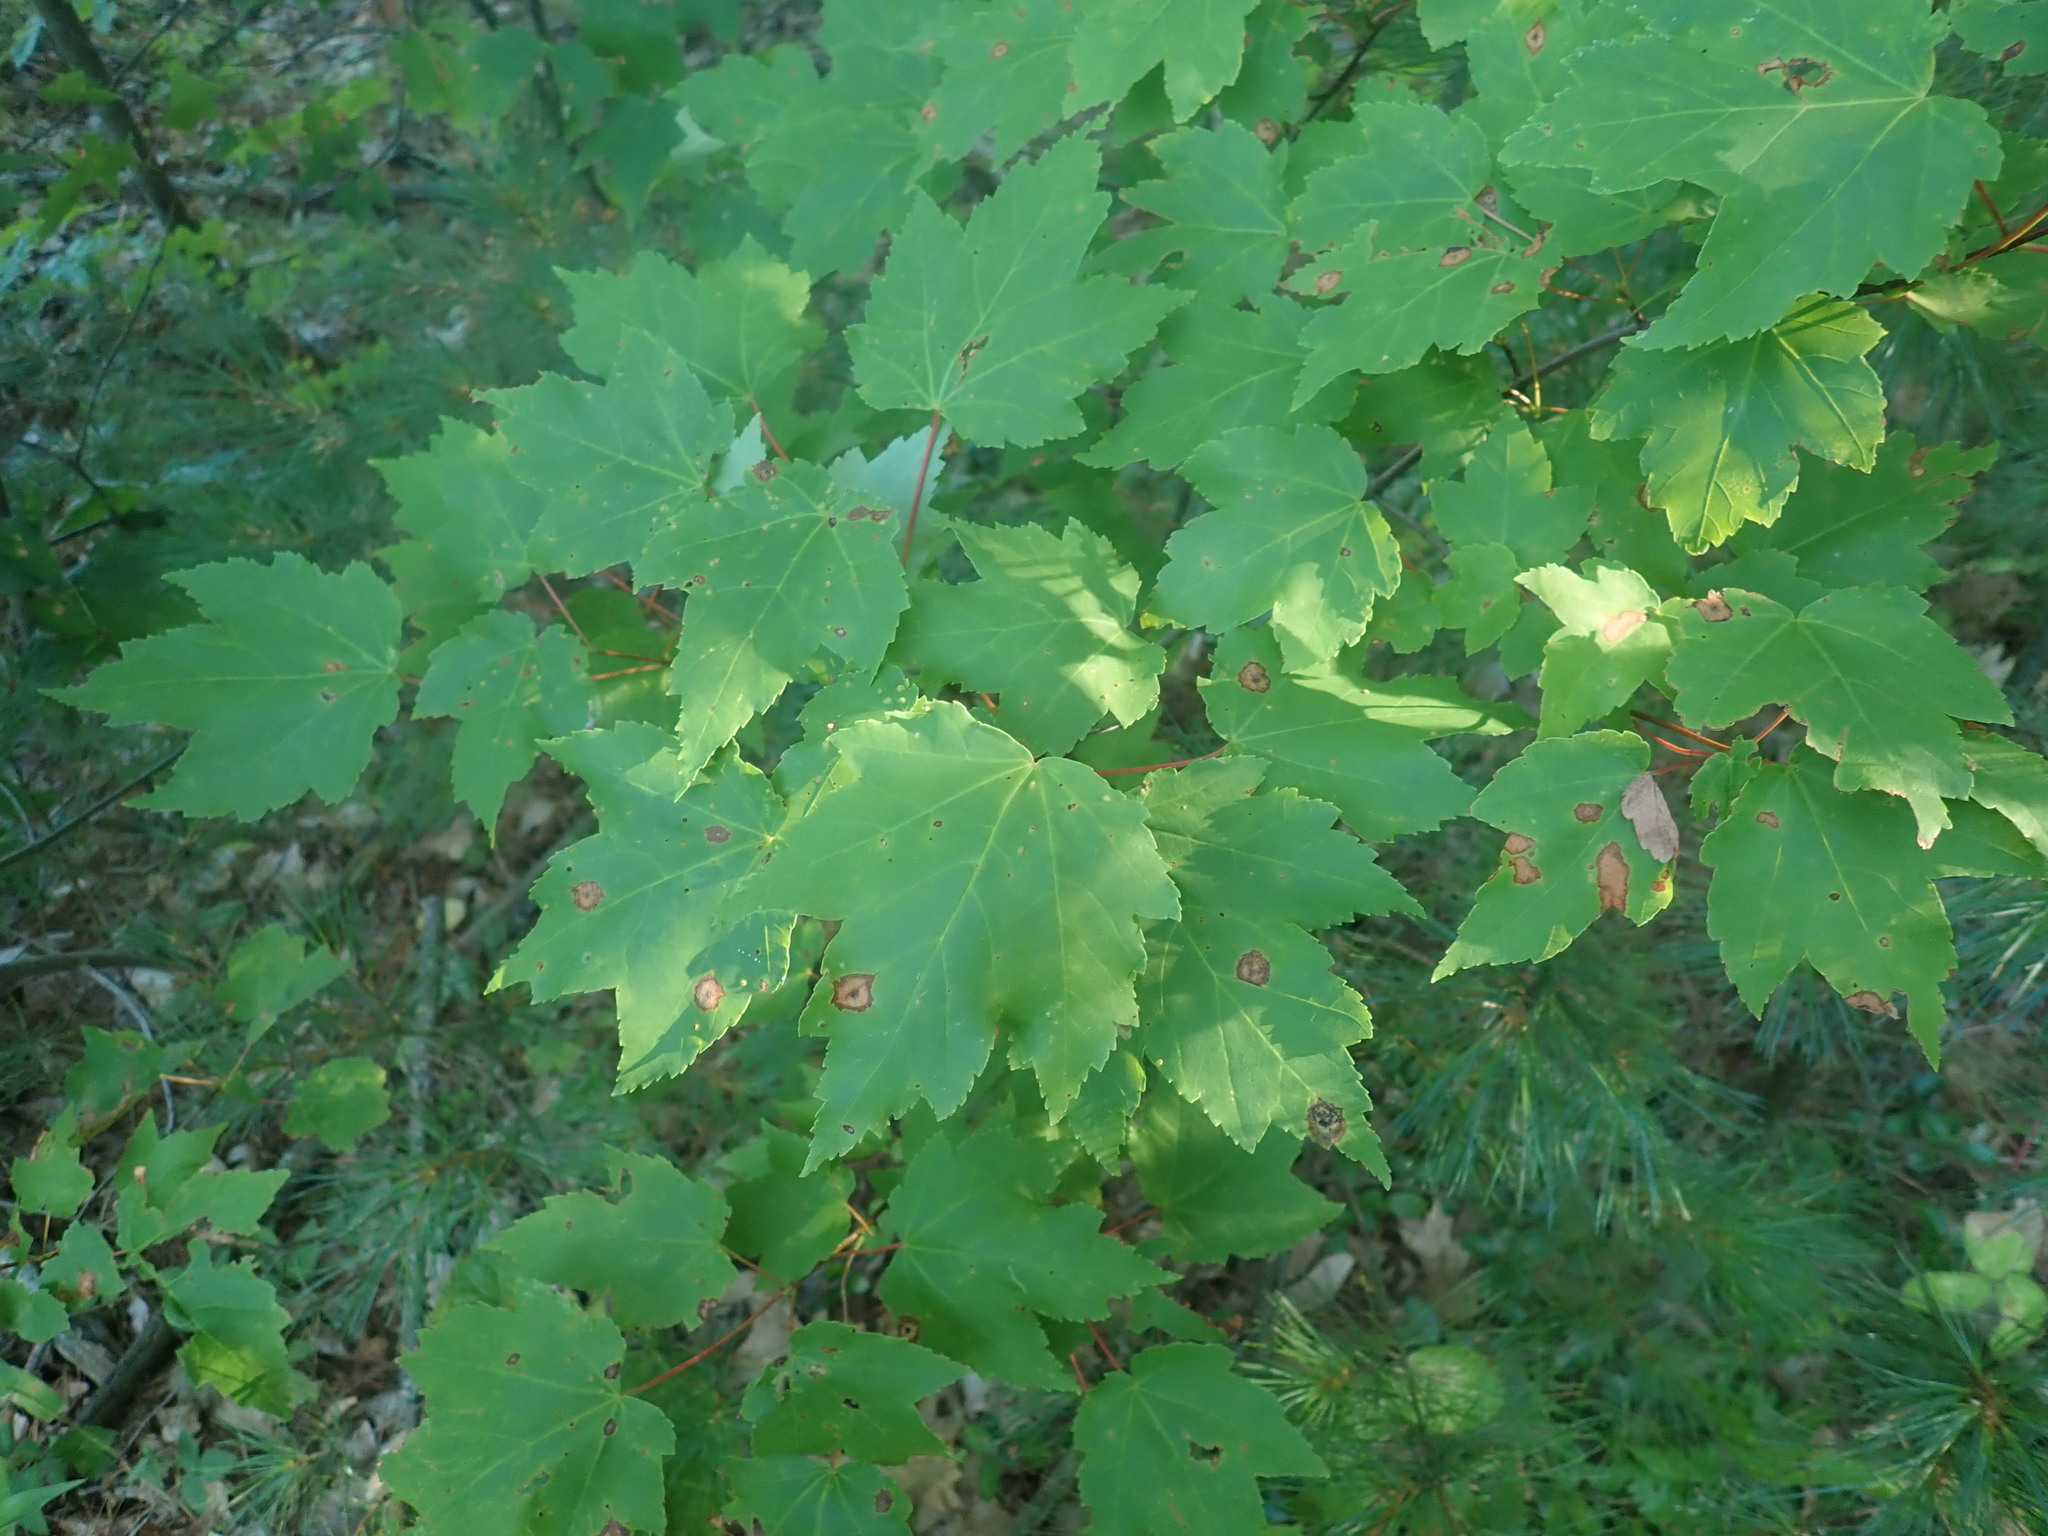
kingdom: Plantae
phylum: Tracheophyta
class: Magnoliopsida
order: Sapindales
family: Sapindaceae
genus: Acer
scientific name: Acer rubrum
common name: Red maple
